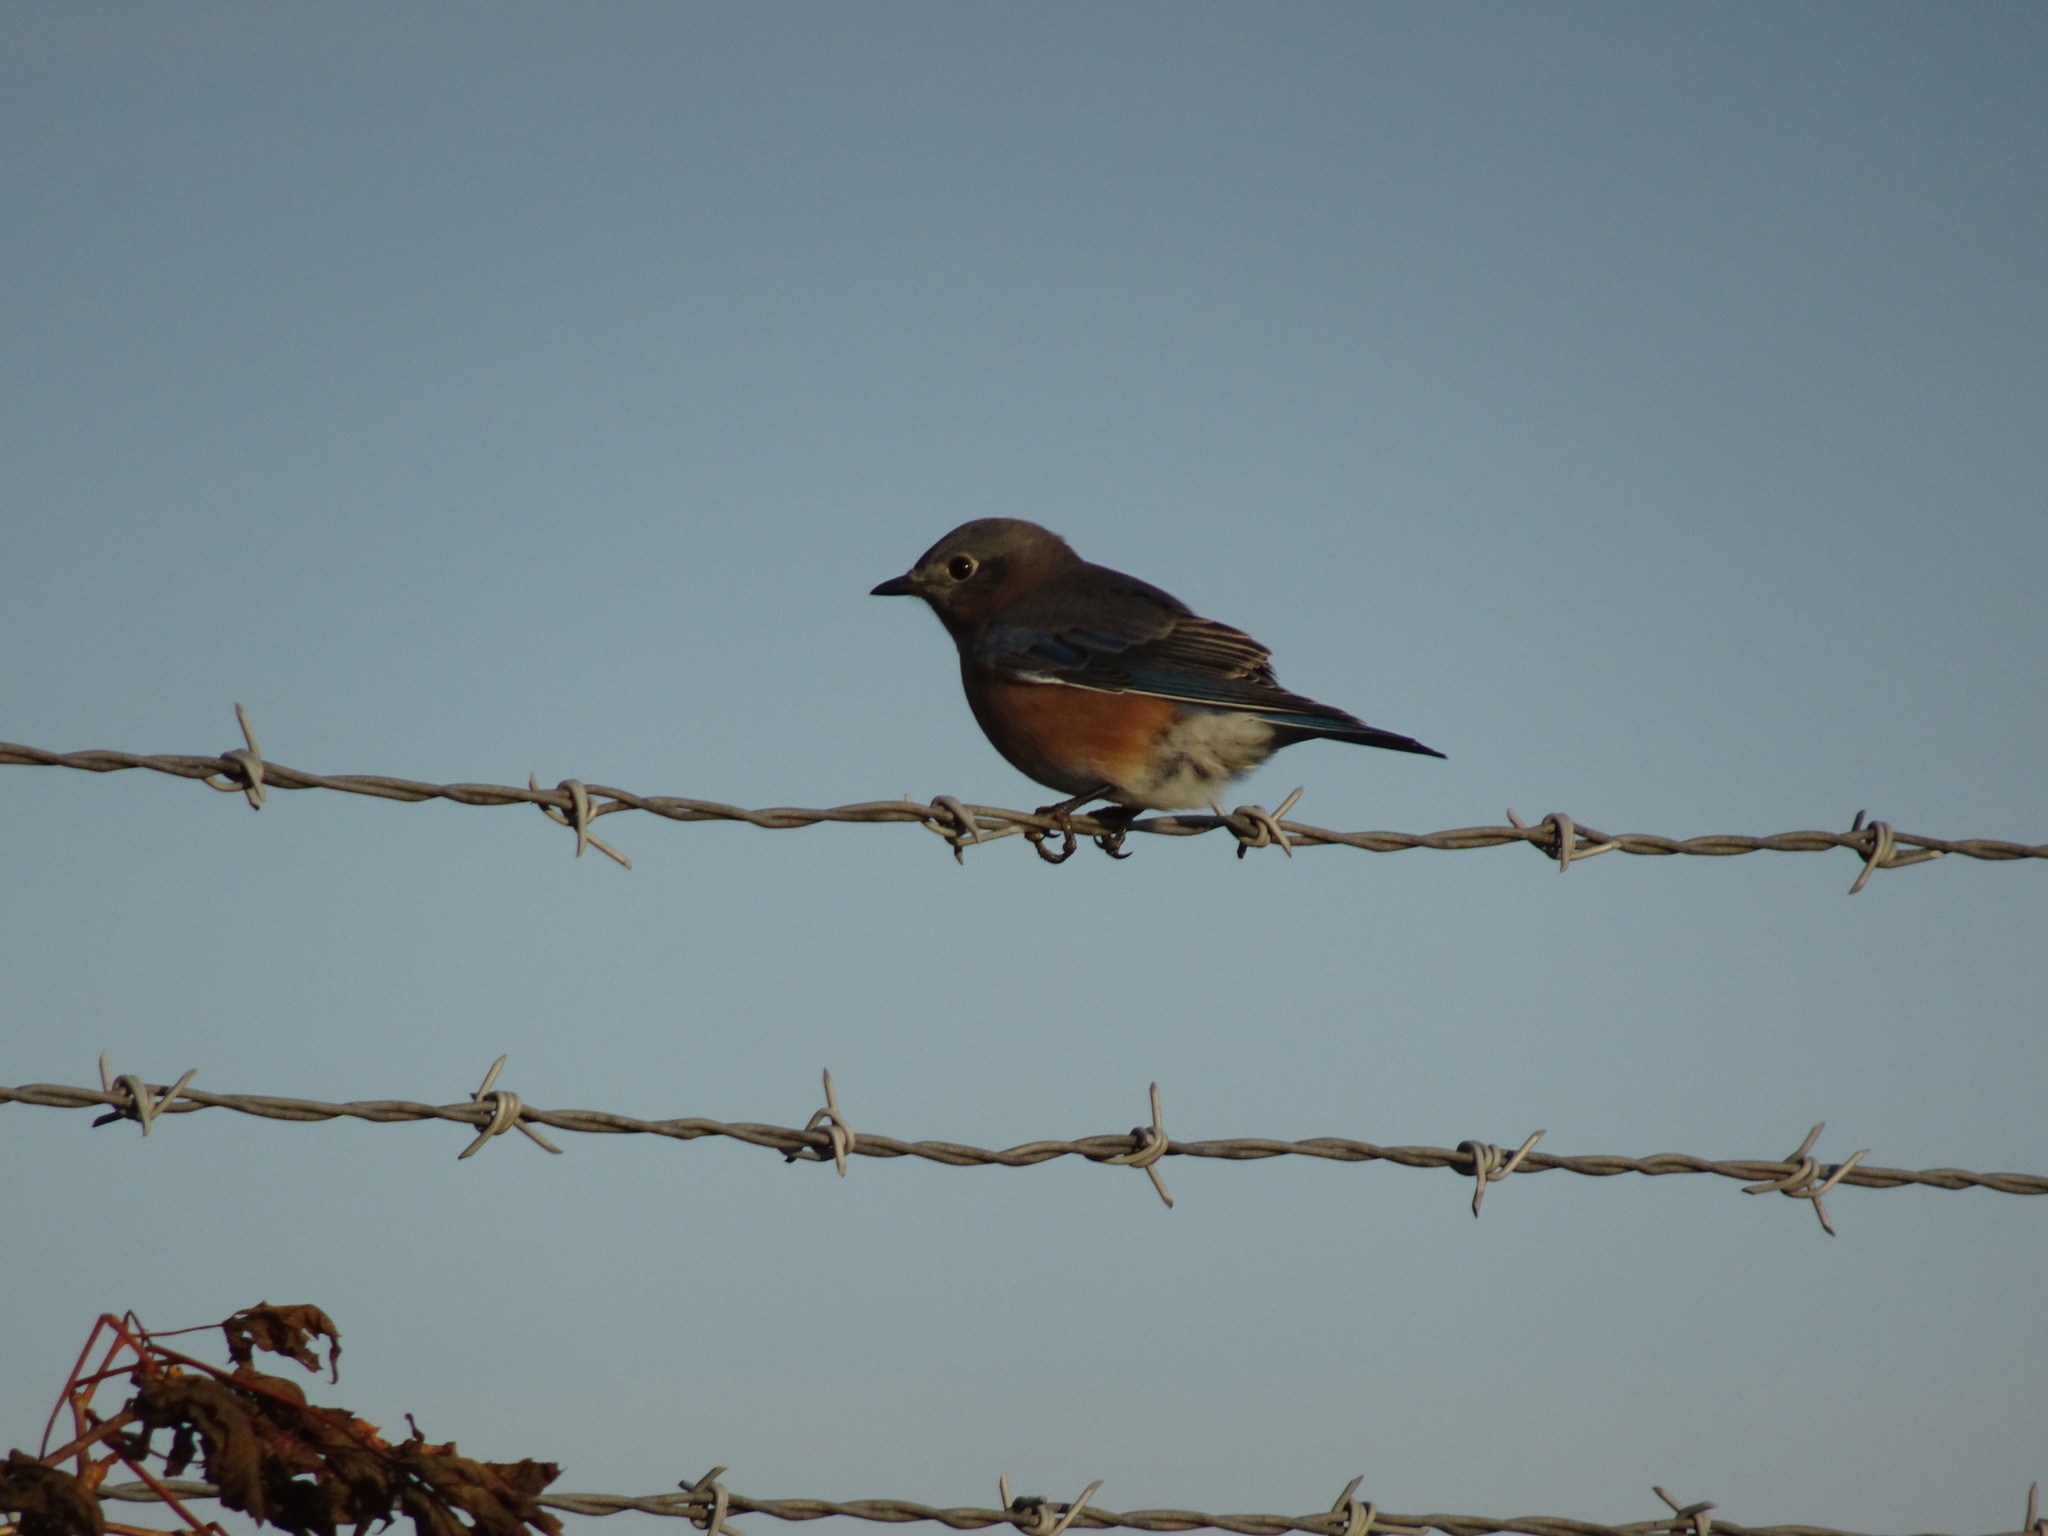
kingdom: Animalia
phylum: Chordata
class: Aves
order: Passeriformes
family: Turdidae
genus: Sialia
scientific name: Sialia sialis
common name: Eastern bluebird
